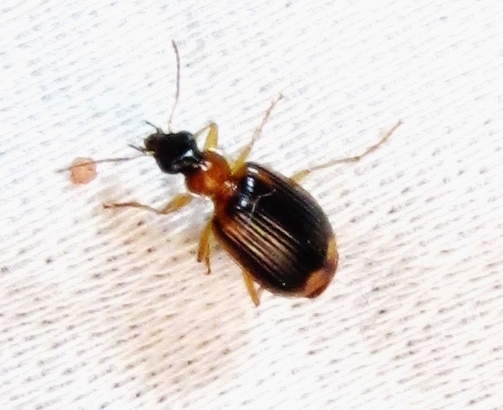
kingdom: Animalia
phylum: Arthropoda
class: Insecta
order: Coleoptera
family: Carabidae
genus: Lebia
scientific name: Lebia analis
